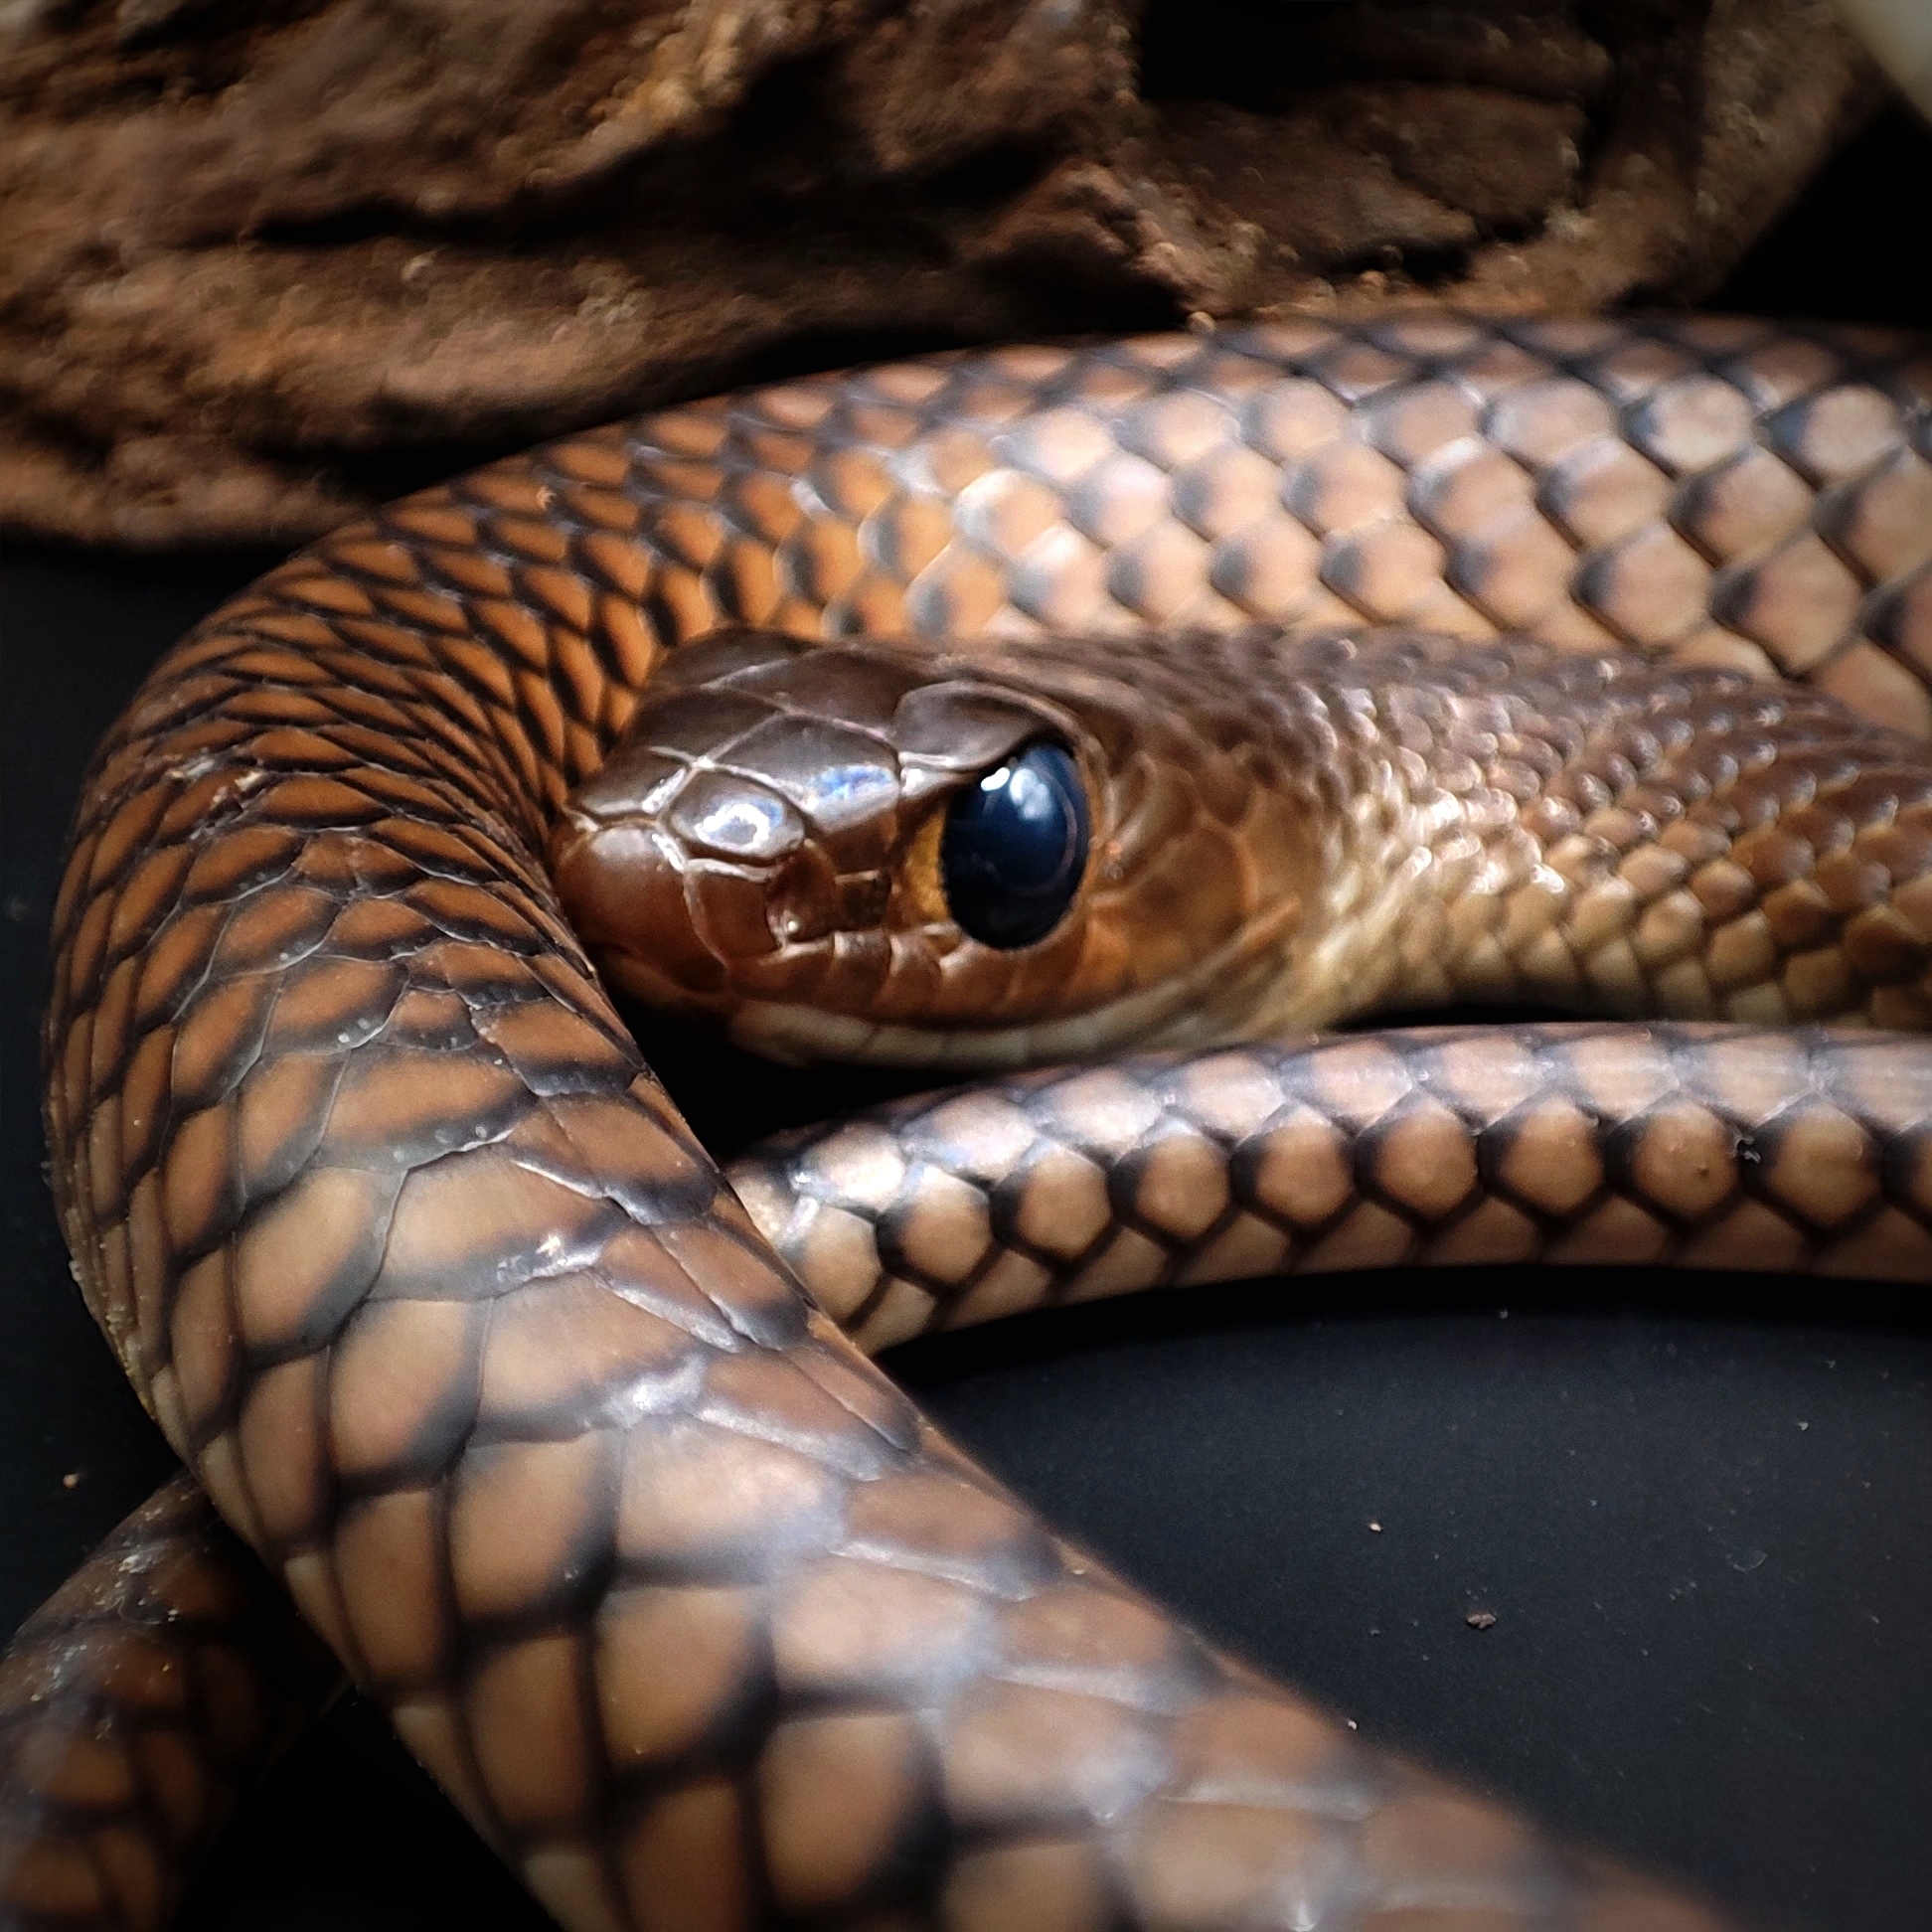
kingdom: Animalia
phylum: Chordata
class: Squamata
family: Colubridae
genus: Ptyas
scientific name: Ptyas korros
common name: Indo-chinese rat snake
